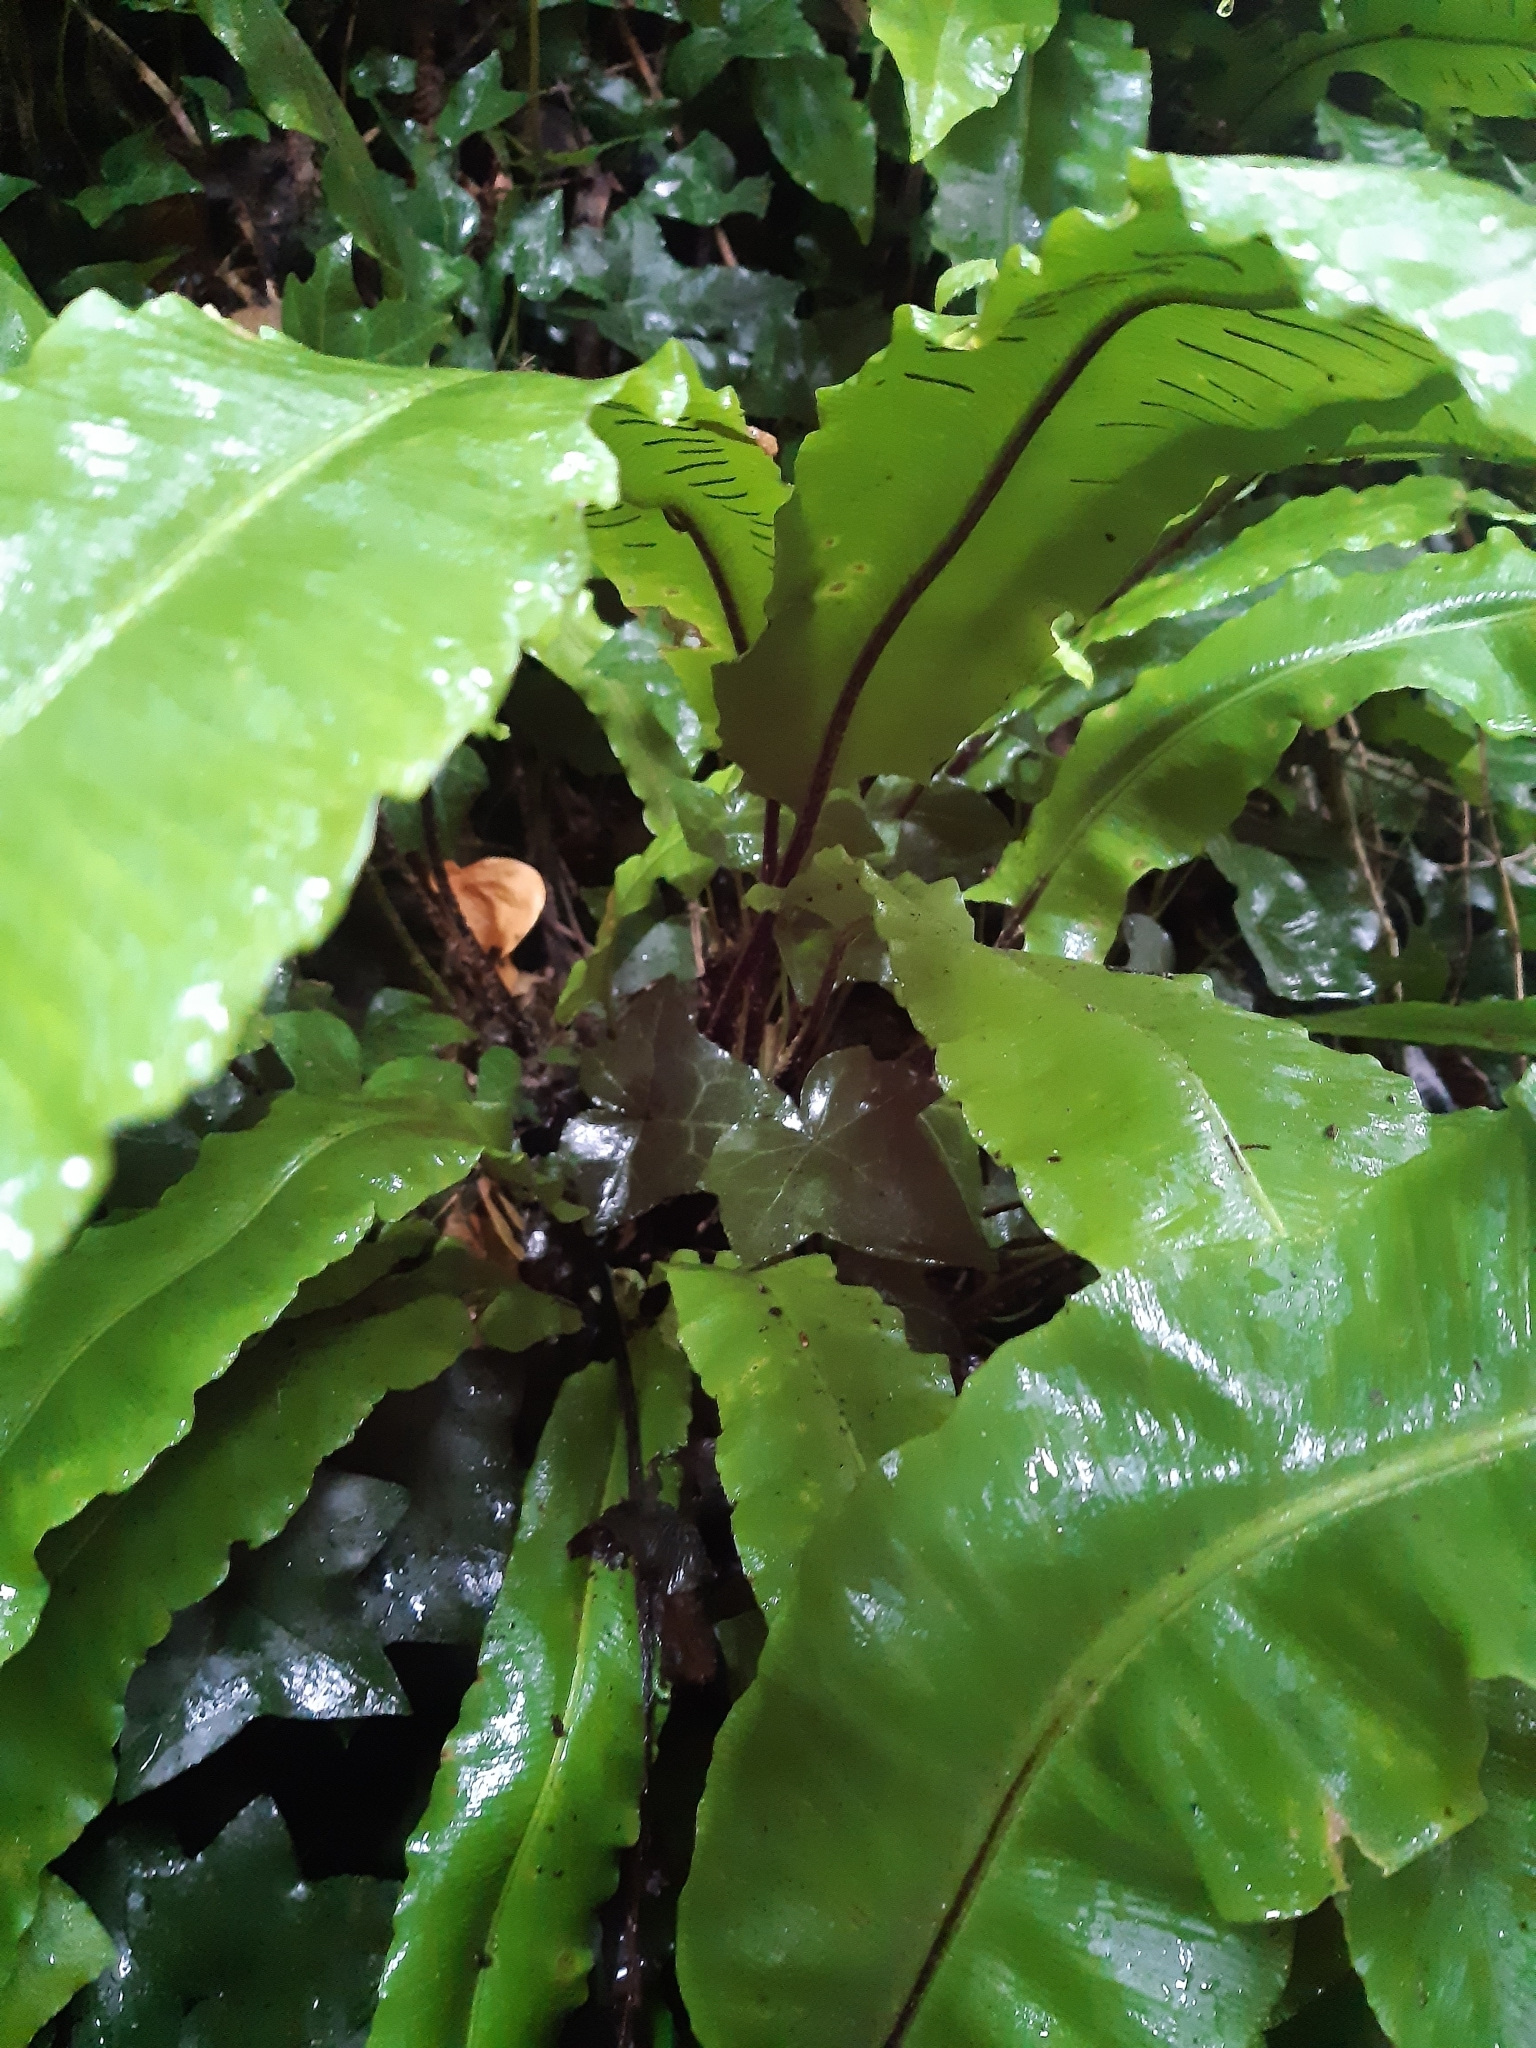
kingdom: Plantae
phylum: Tracheophyta
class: Polypodiopsida
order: Polypodiales
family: Aspleniaceae
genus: Asplenium
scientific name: Asplenium scolopendrium
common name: Hart's-tongue fern
